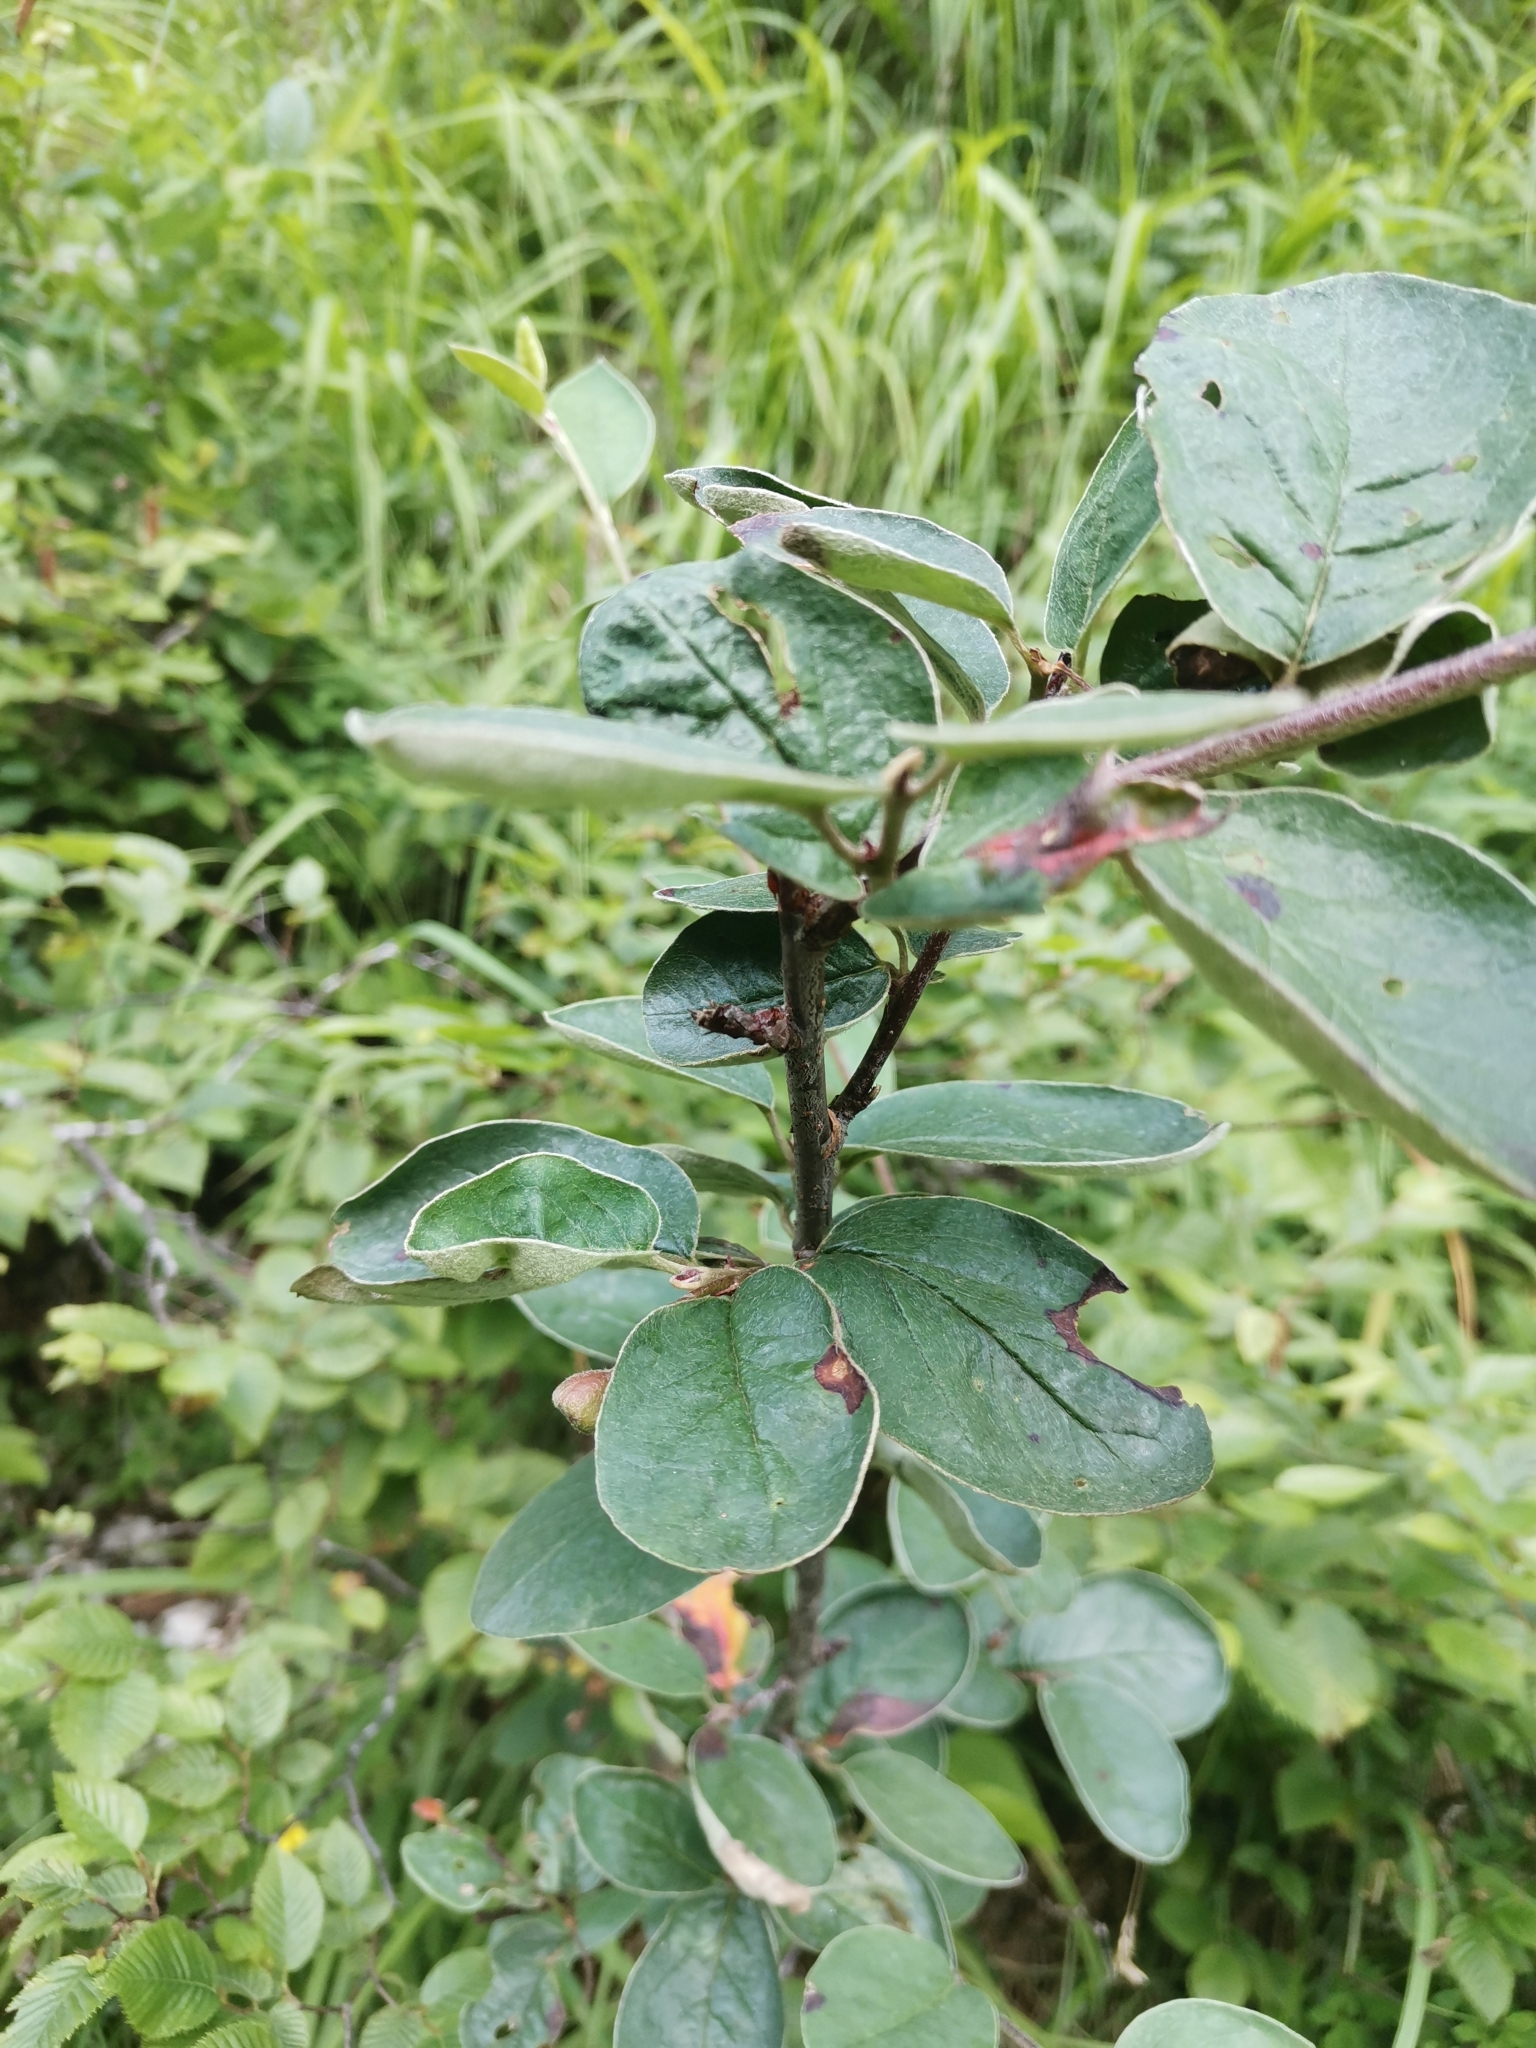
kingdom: Plantae
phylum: Tracheophyta
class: Magnoliopsida
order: Rosales
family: Rosaceae
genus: Cotoneaster
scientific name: Cotoneaster tomentosus
